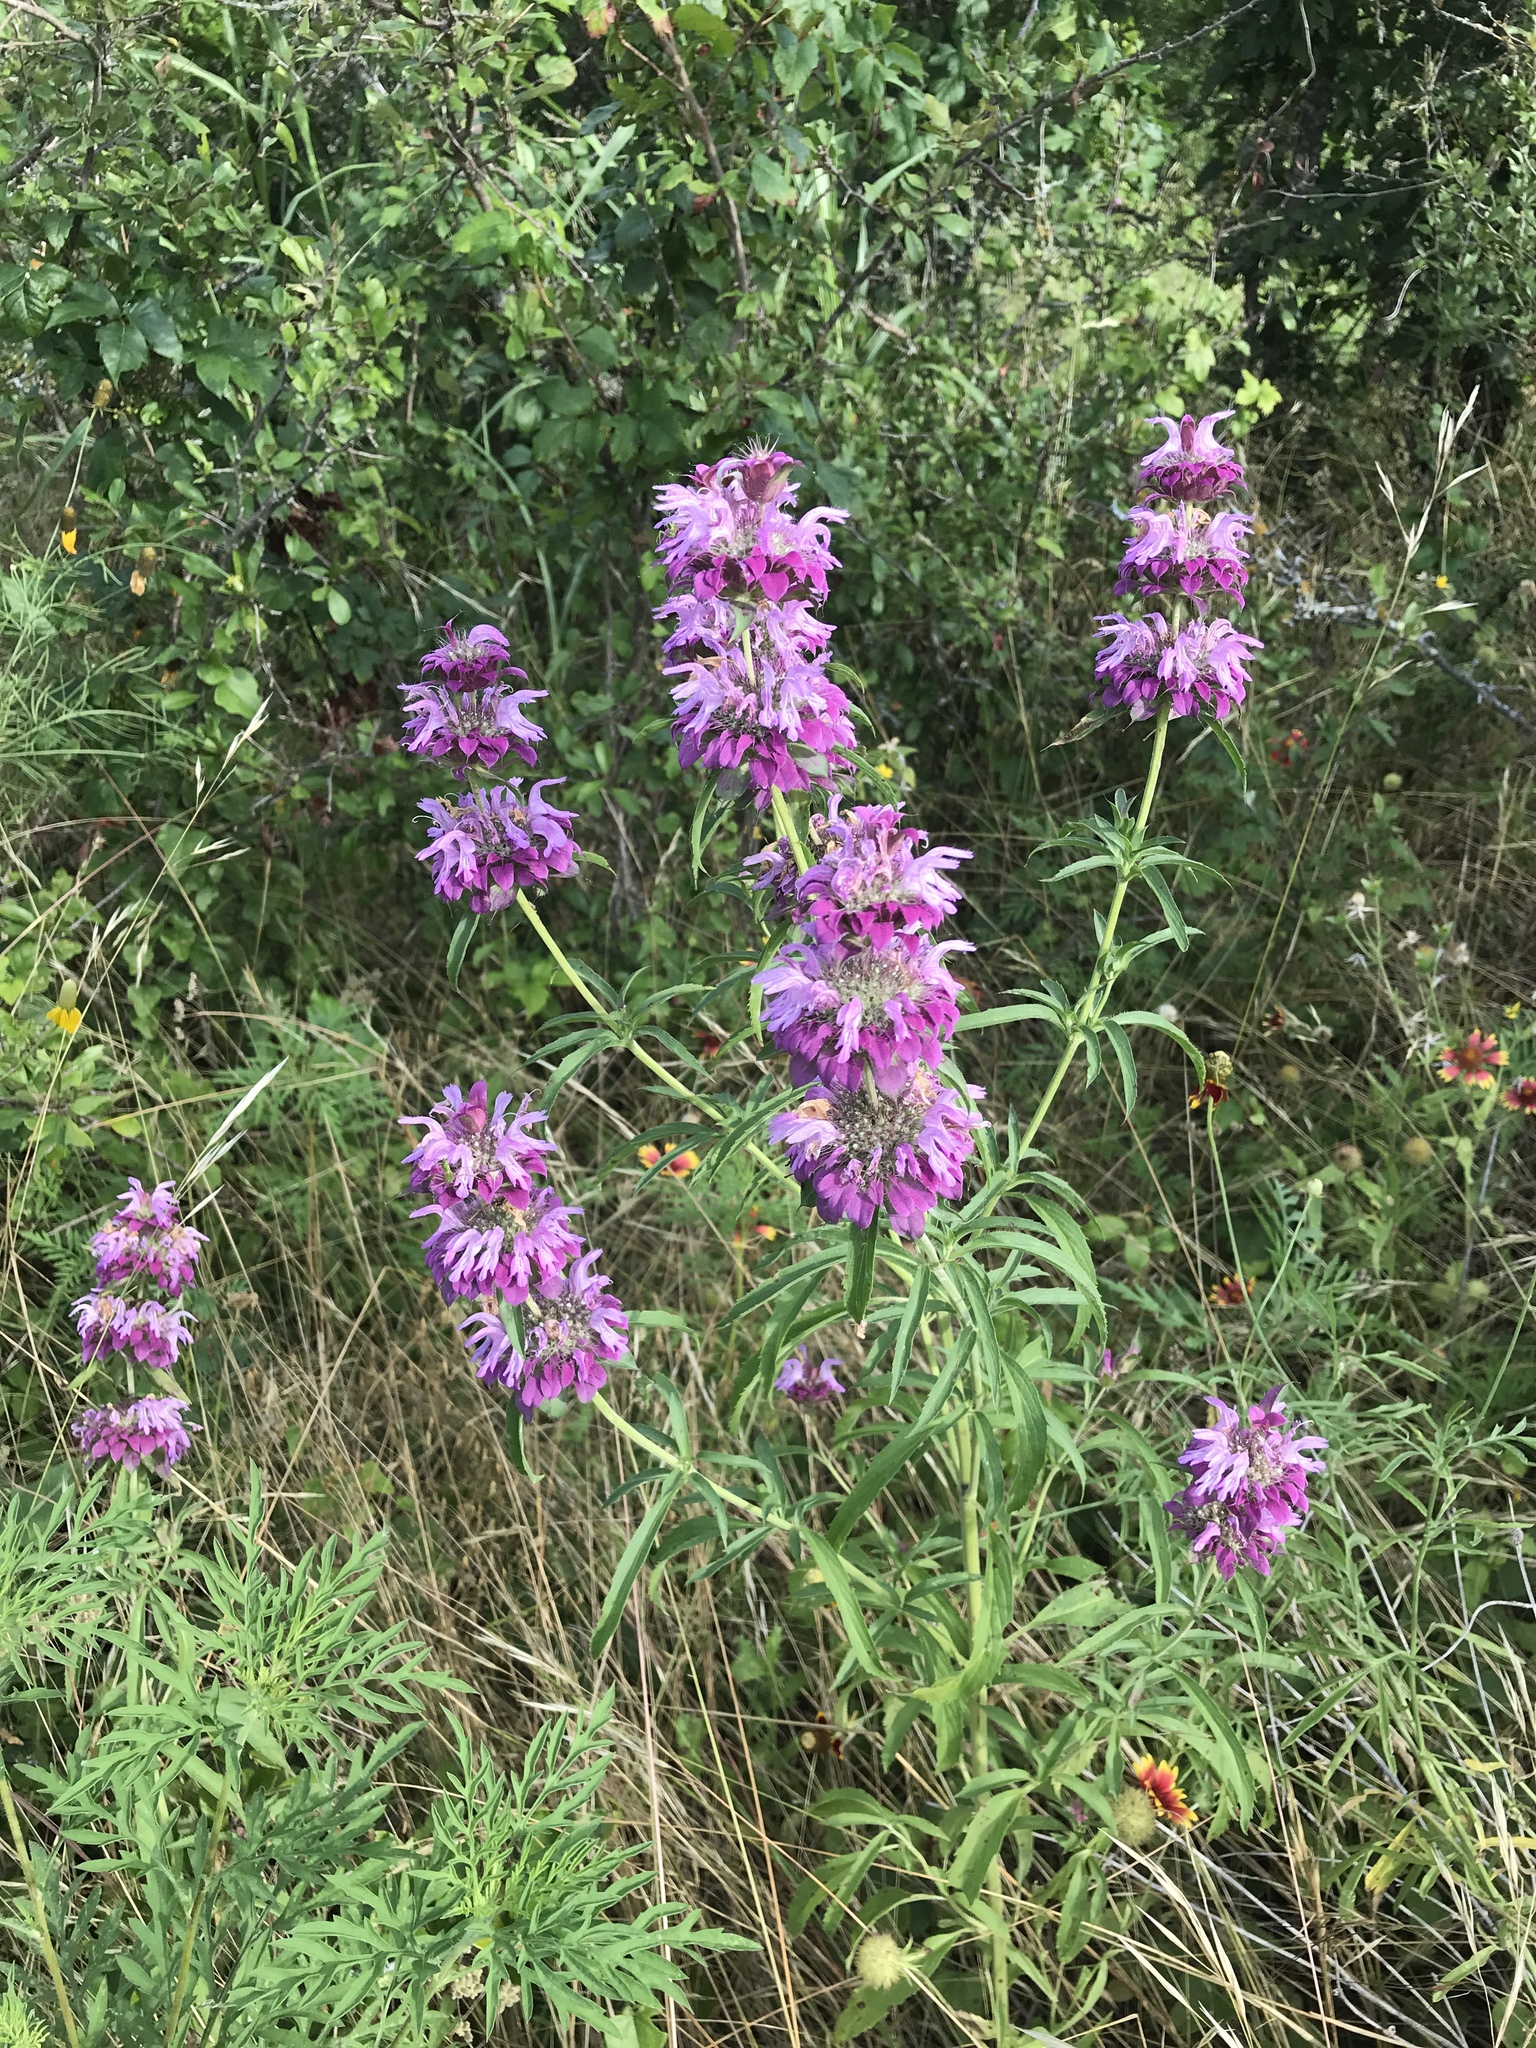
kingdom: Plantae
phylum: Tracheophyta
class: Magnoliopsida
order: Lamiales
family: Lamiaceae
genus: Monarda
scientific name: Monarda citriodora
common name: Lemon beebalm
